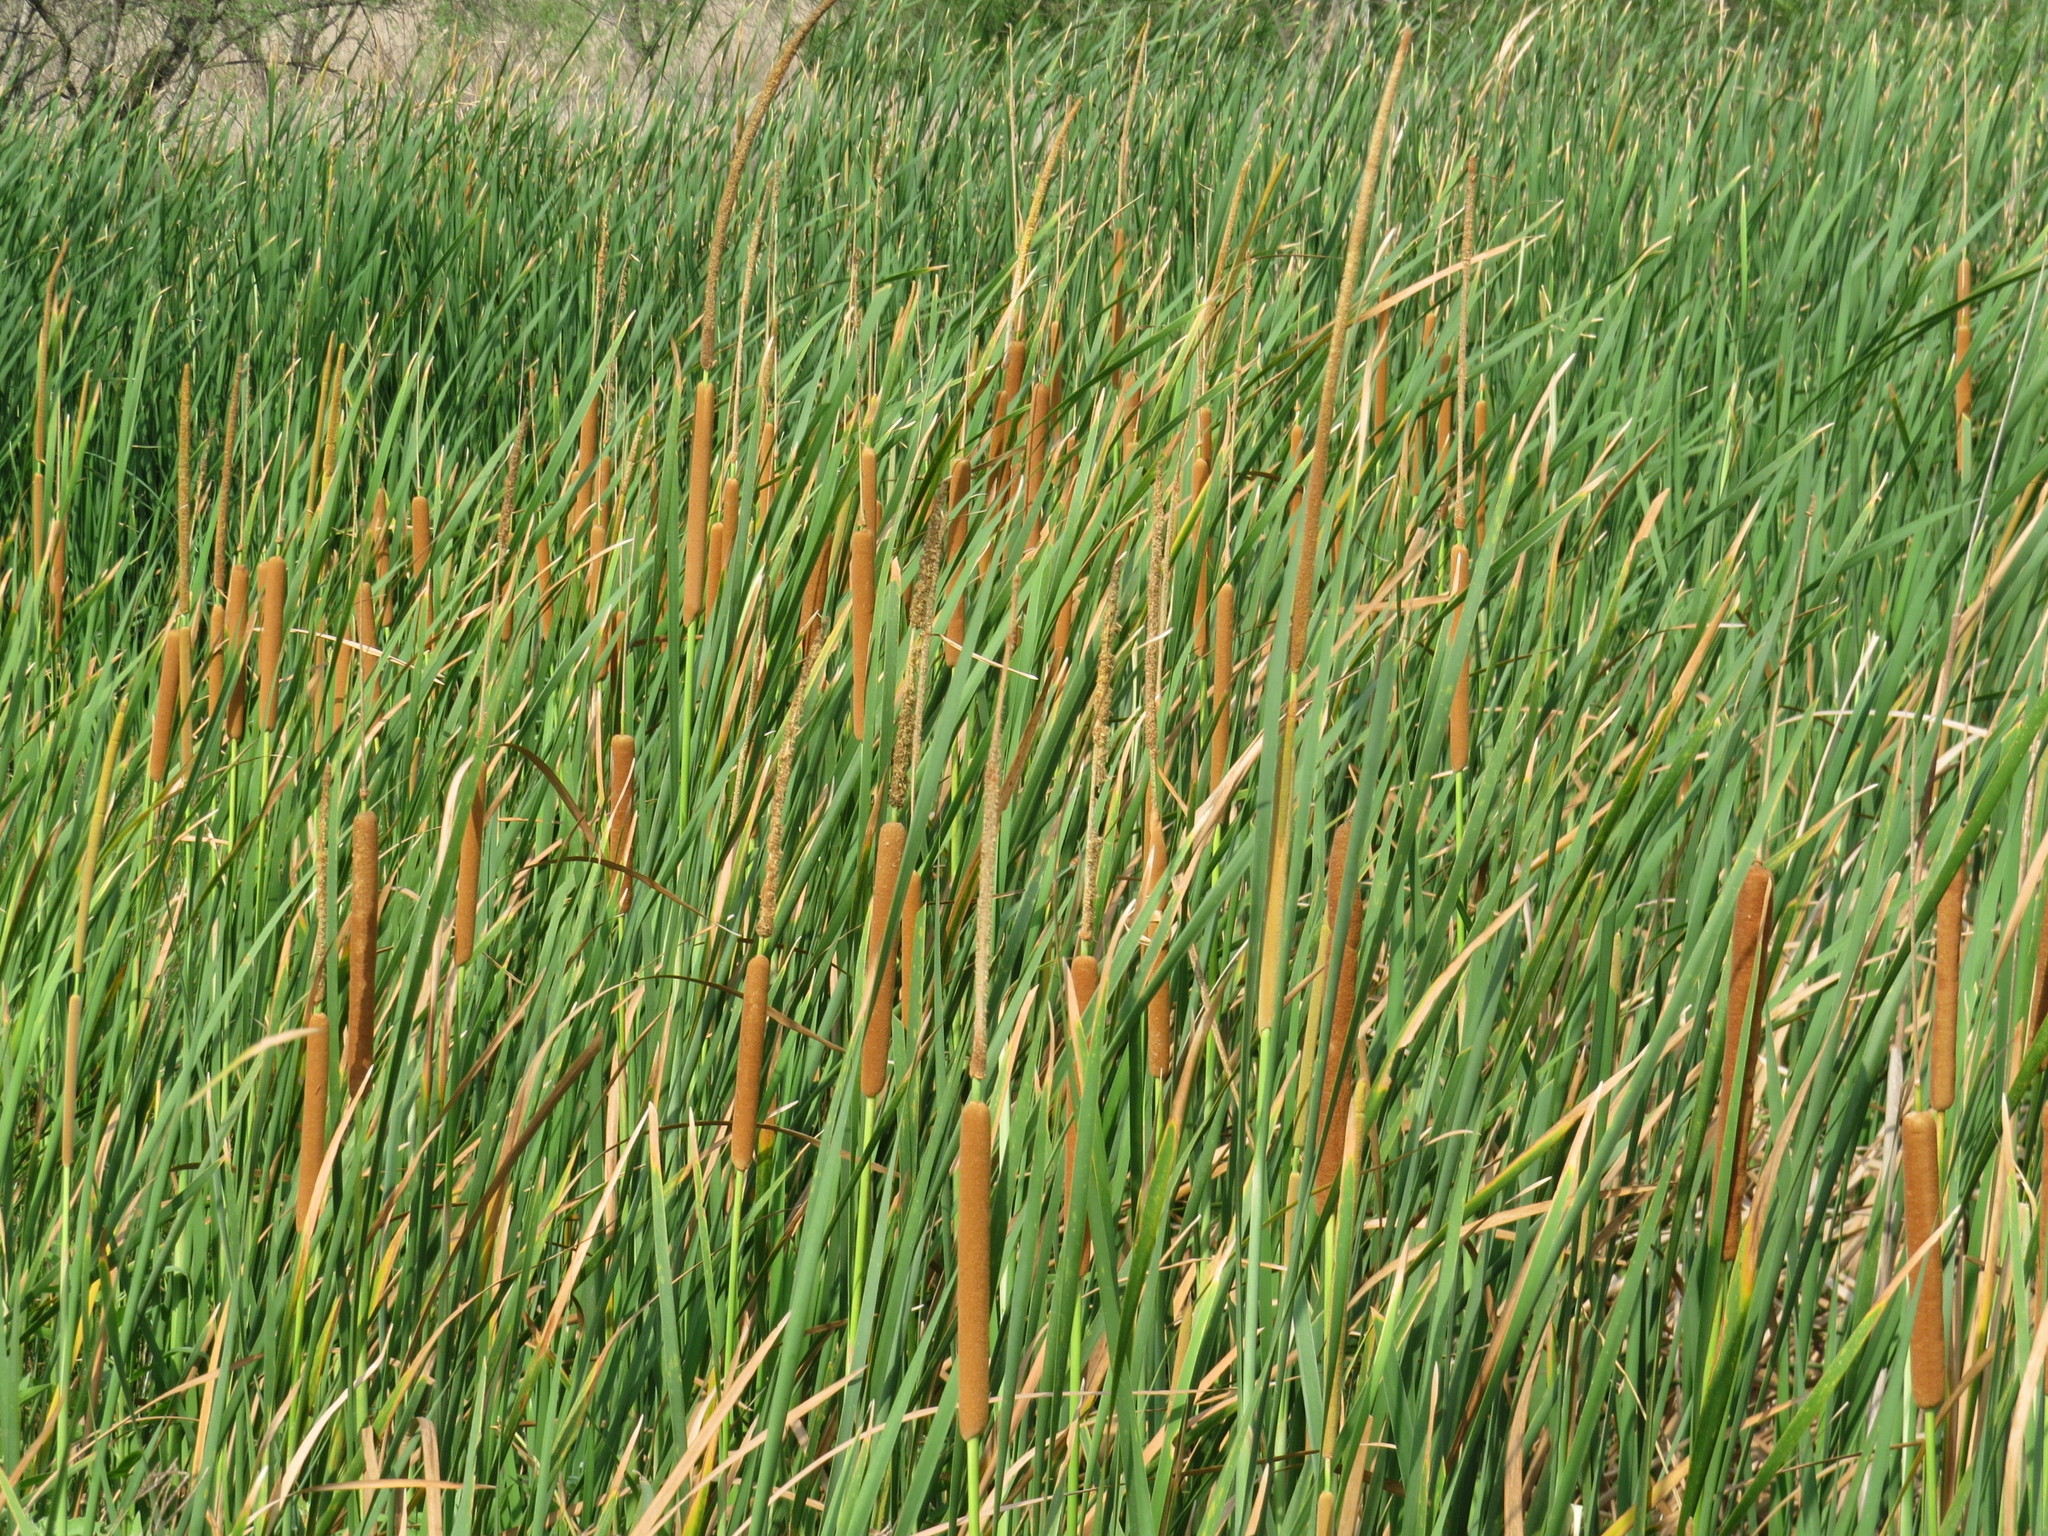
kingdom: Plantae
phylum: Tracheophyta
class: Liliopsida
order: Poales
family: Typhaceae
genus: Typha
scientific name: Typha domingensis
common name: Southern cattail
